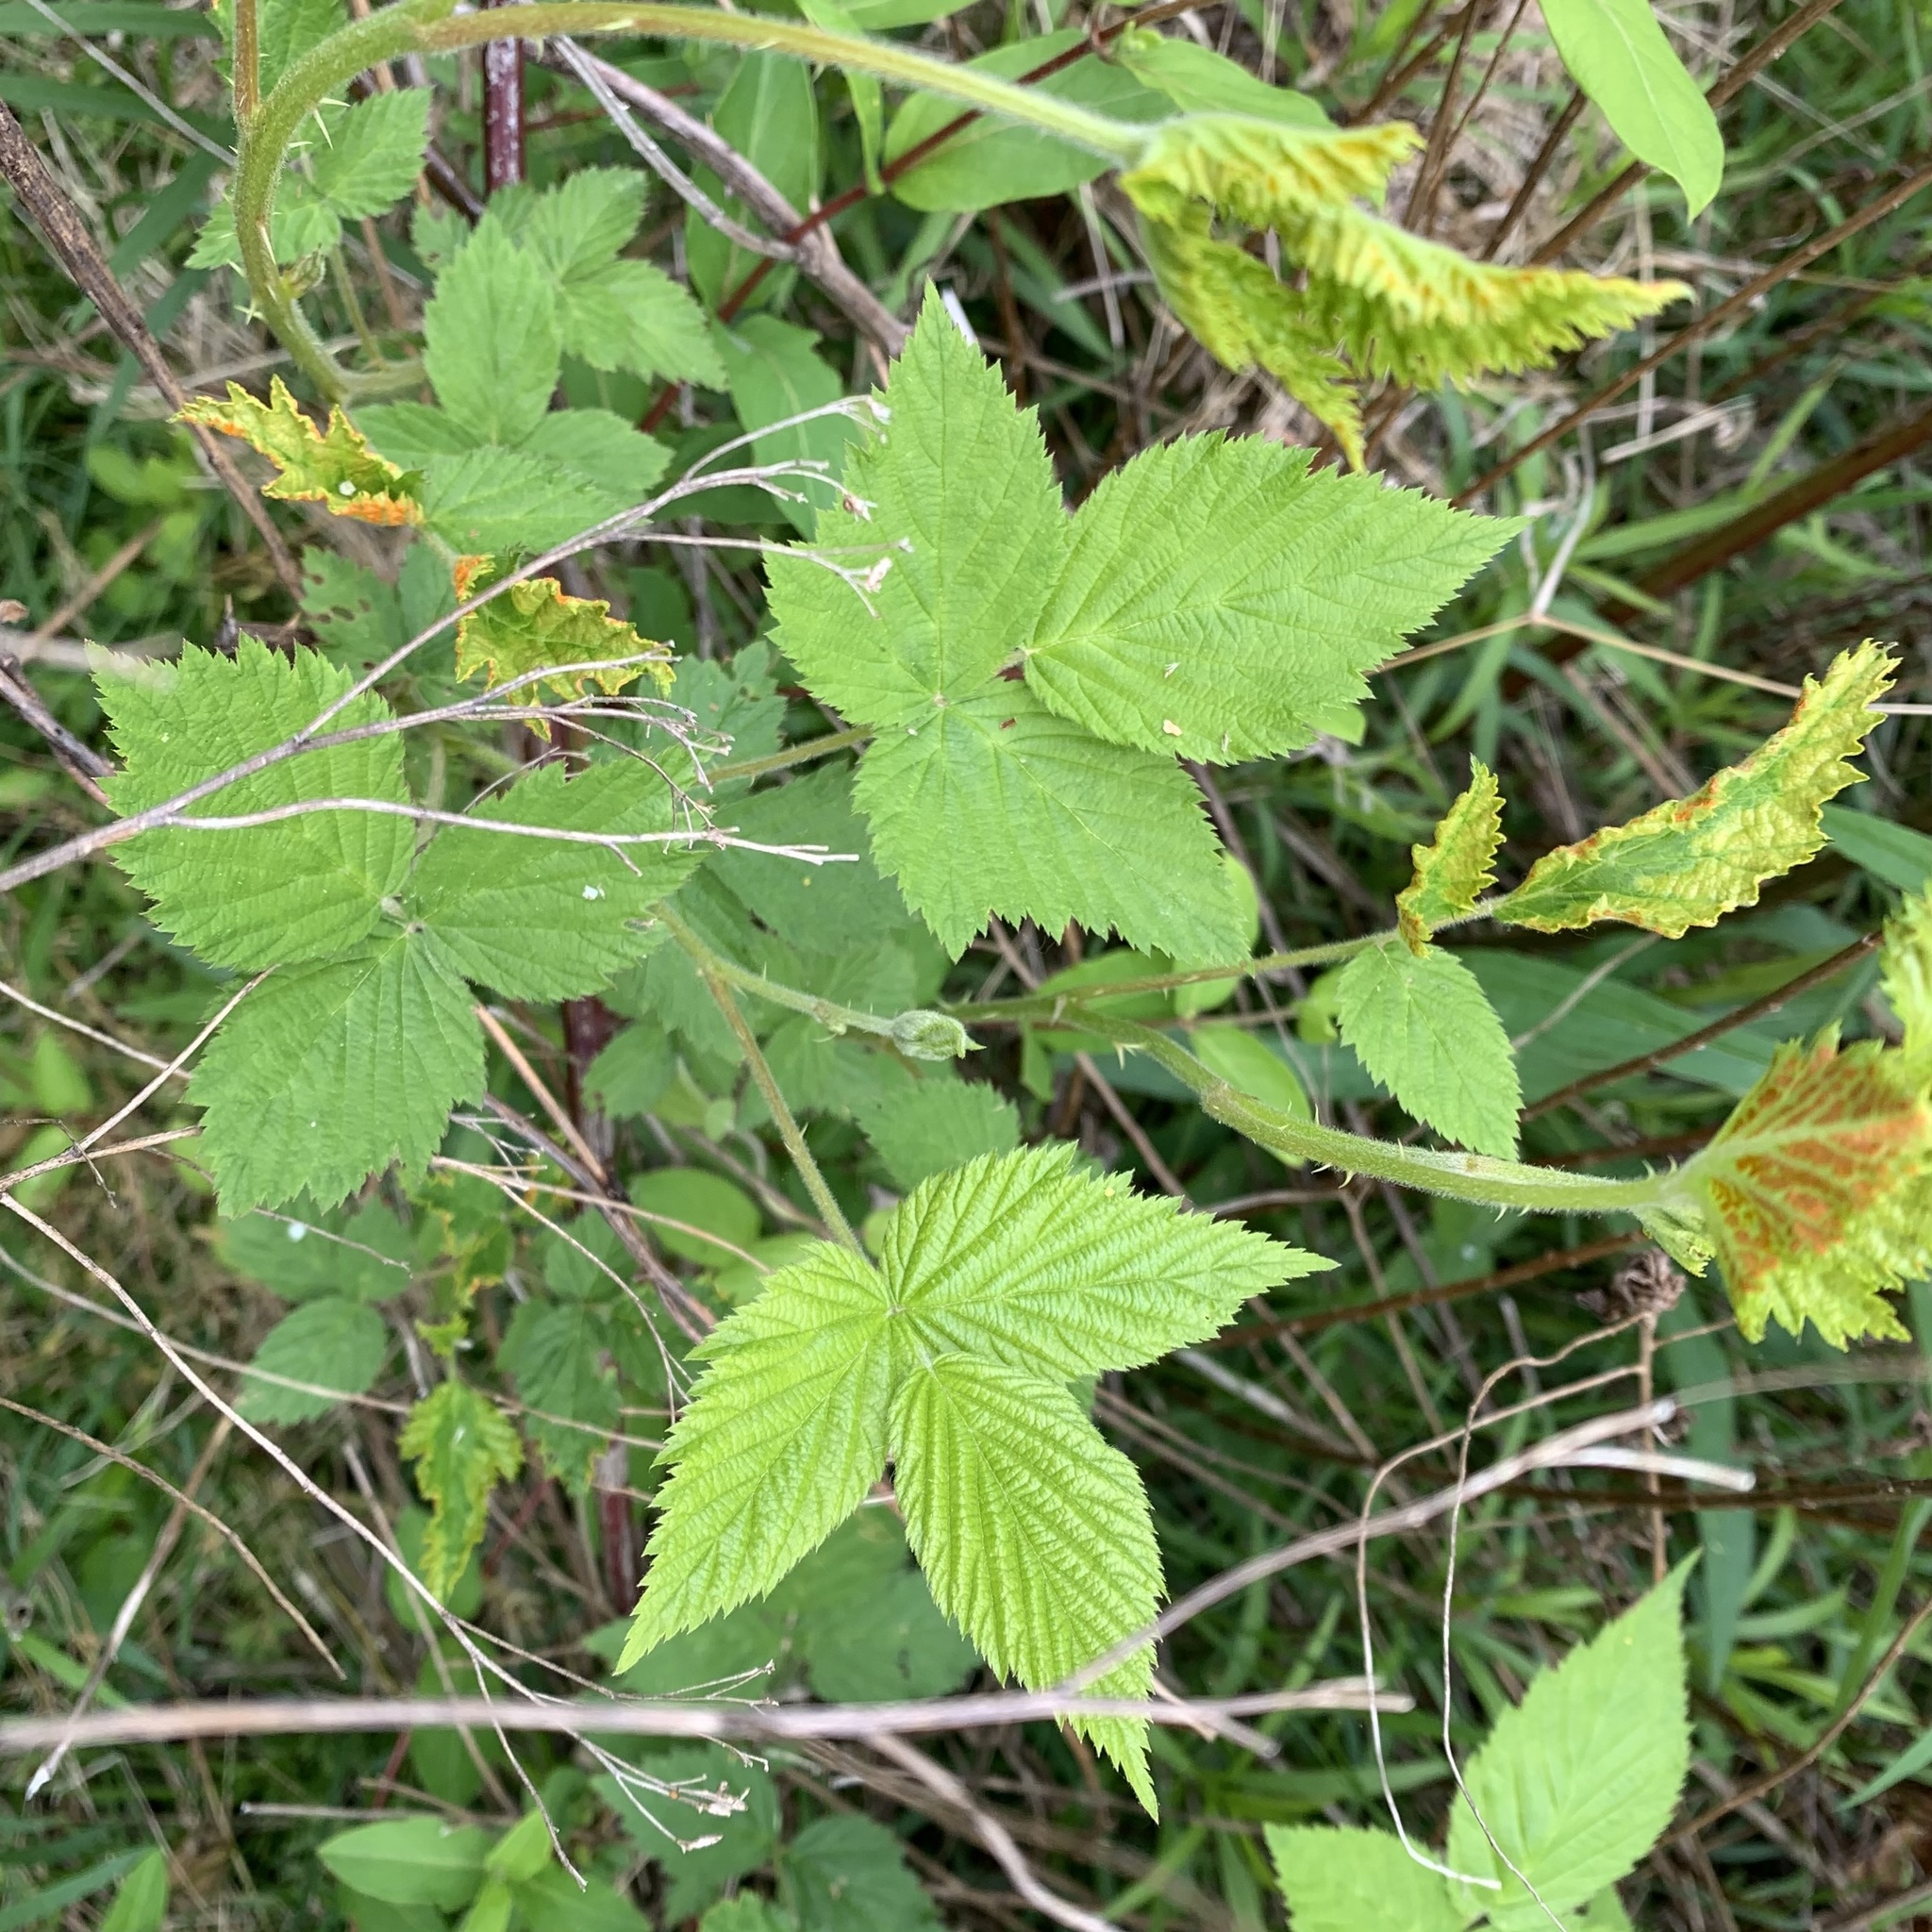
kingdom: Fungi
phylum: Basidiomycota
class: Pucciniomycetes
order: Pucciniales
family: Phragmidiaceae
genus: Arthuriomyces
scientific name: Arthuriomyces peckianus
